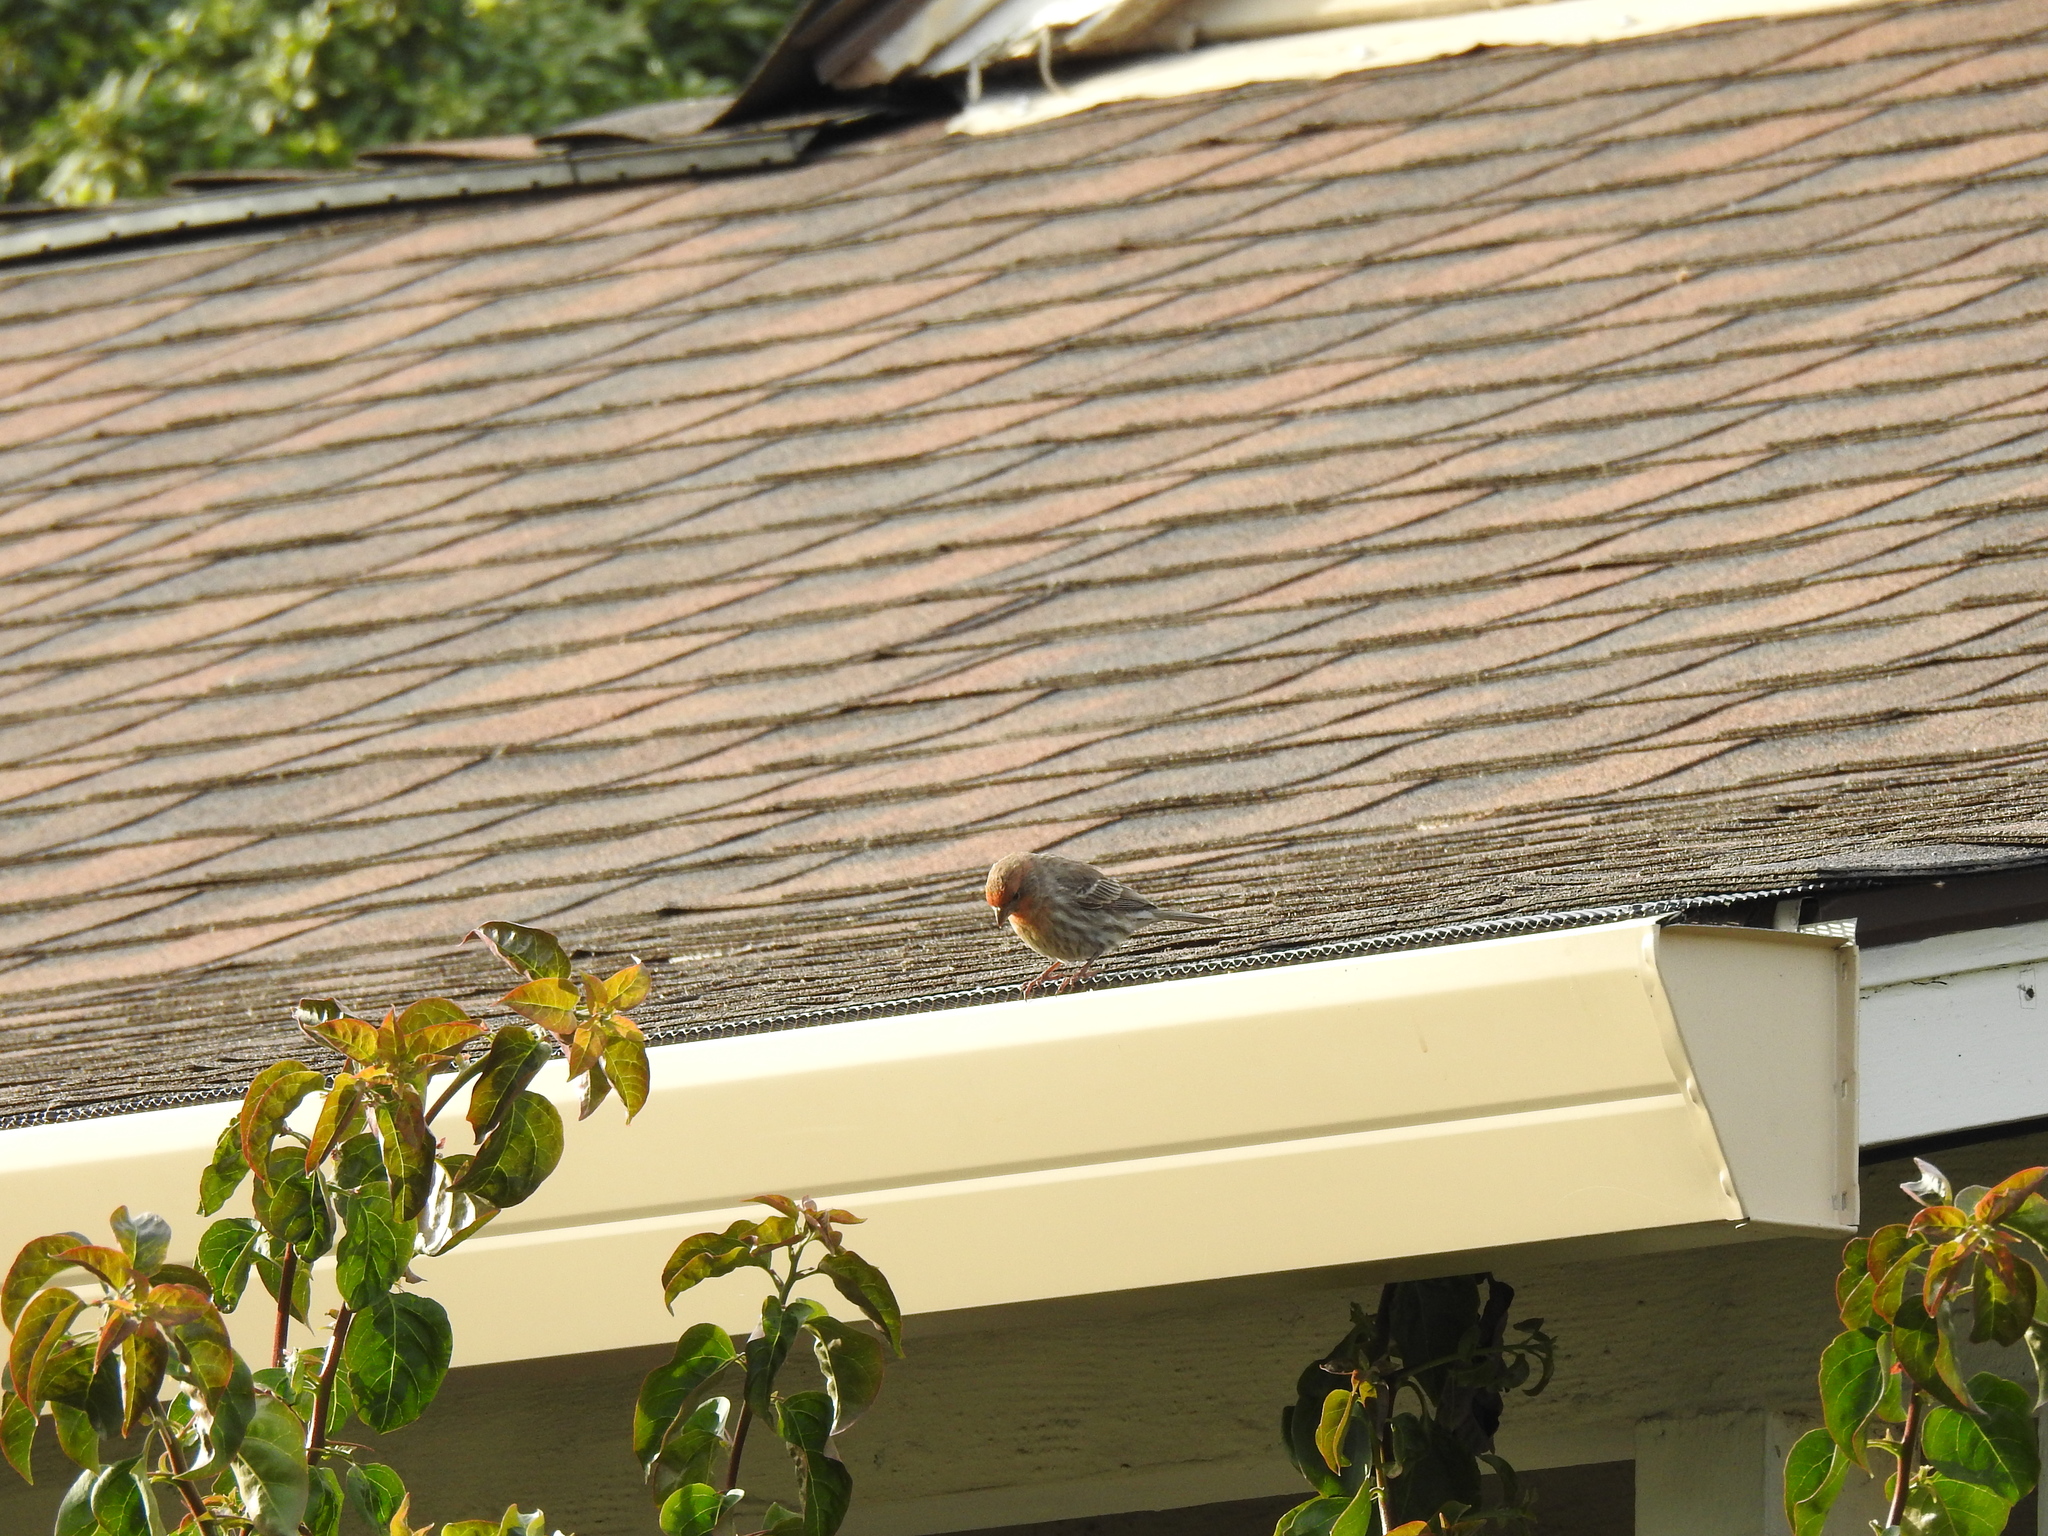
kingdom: Animalia
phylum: Chordata
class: Aves
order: Passeriformes
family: Fringillidae
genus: Haemorhous
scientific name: Haemorhous mexicanus
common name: House finch
